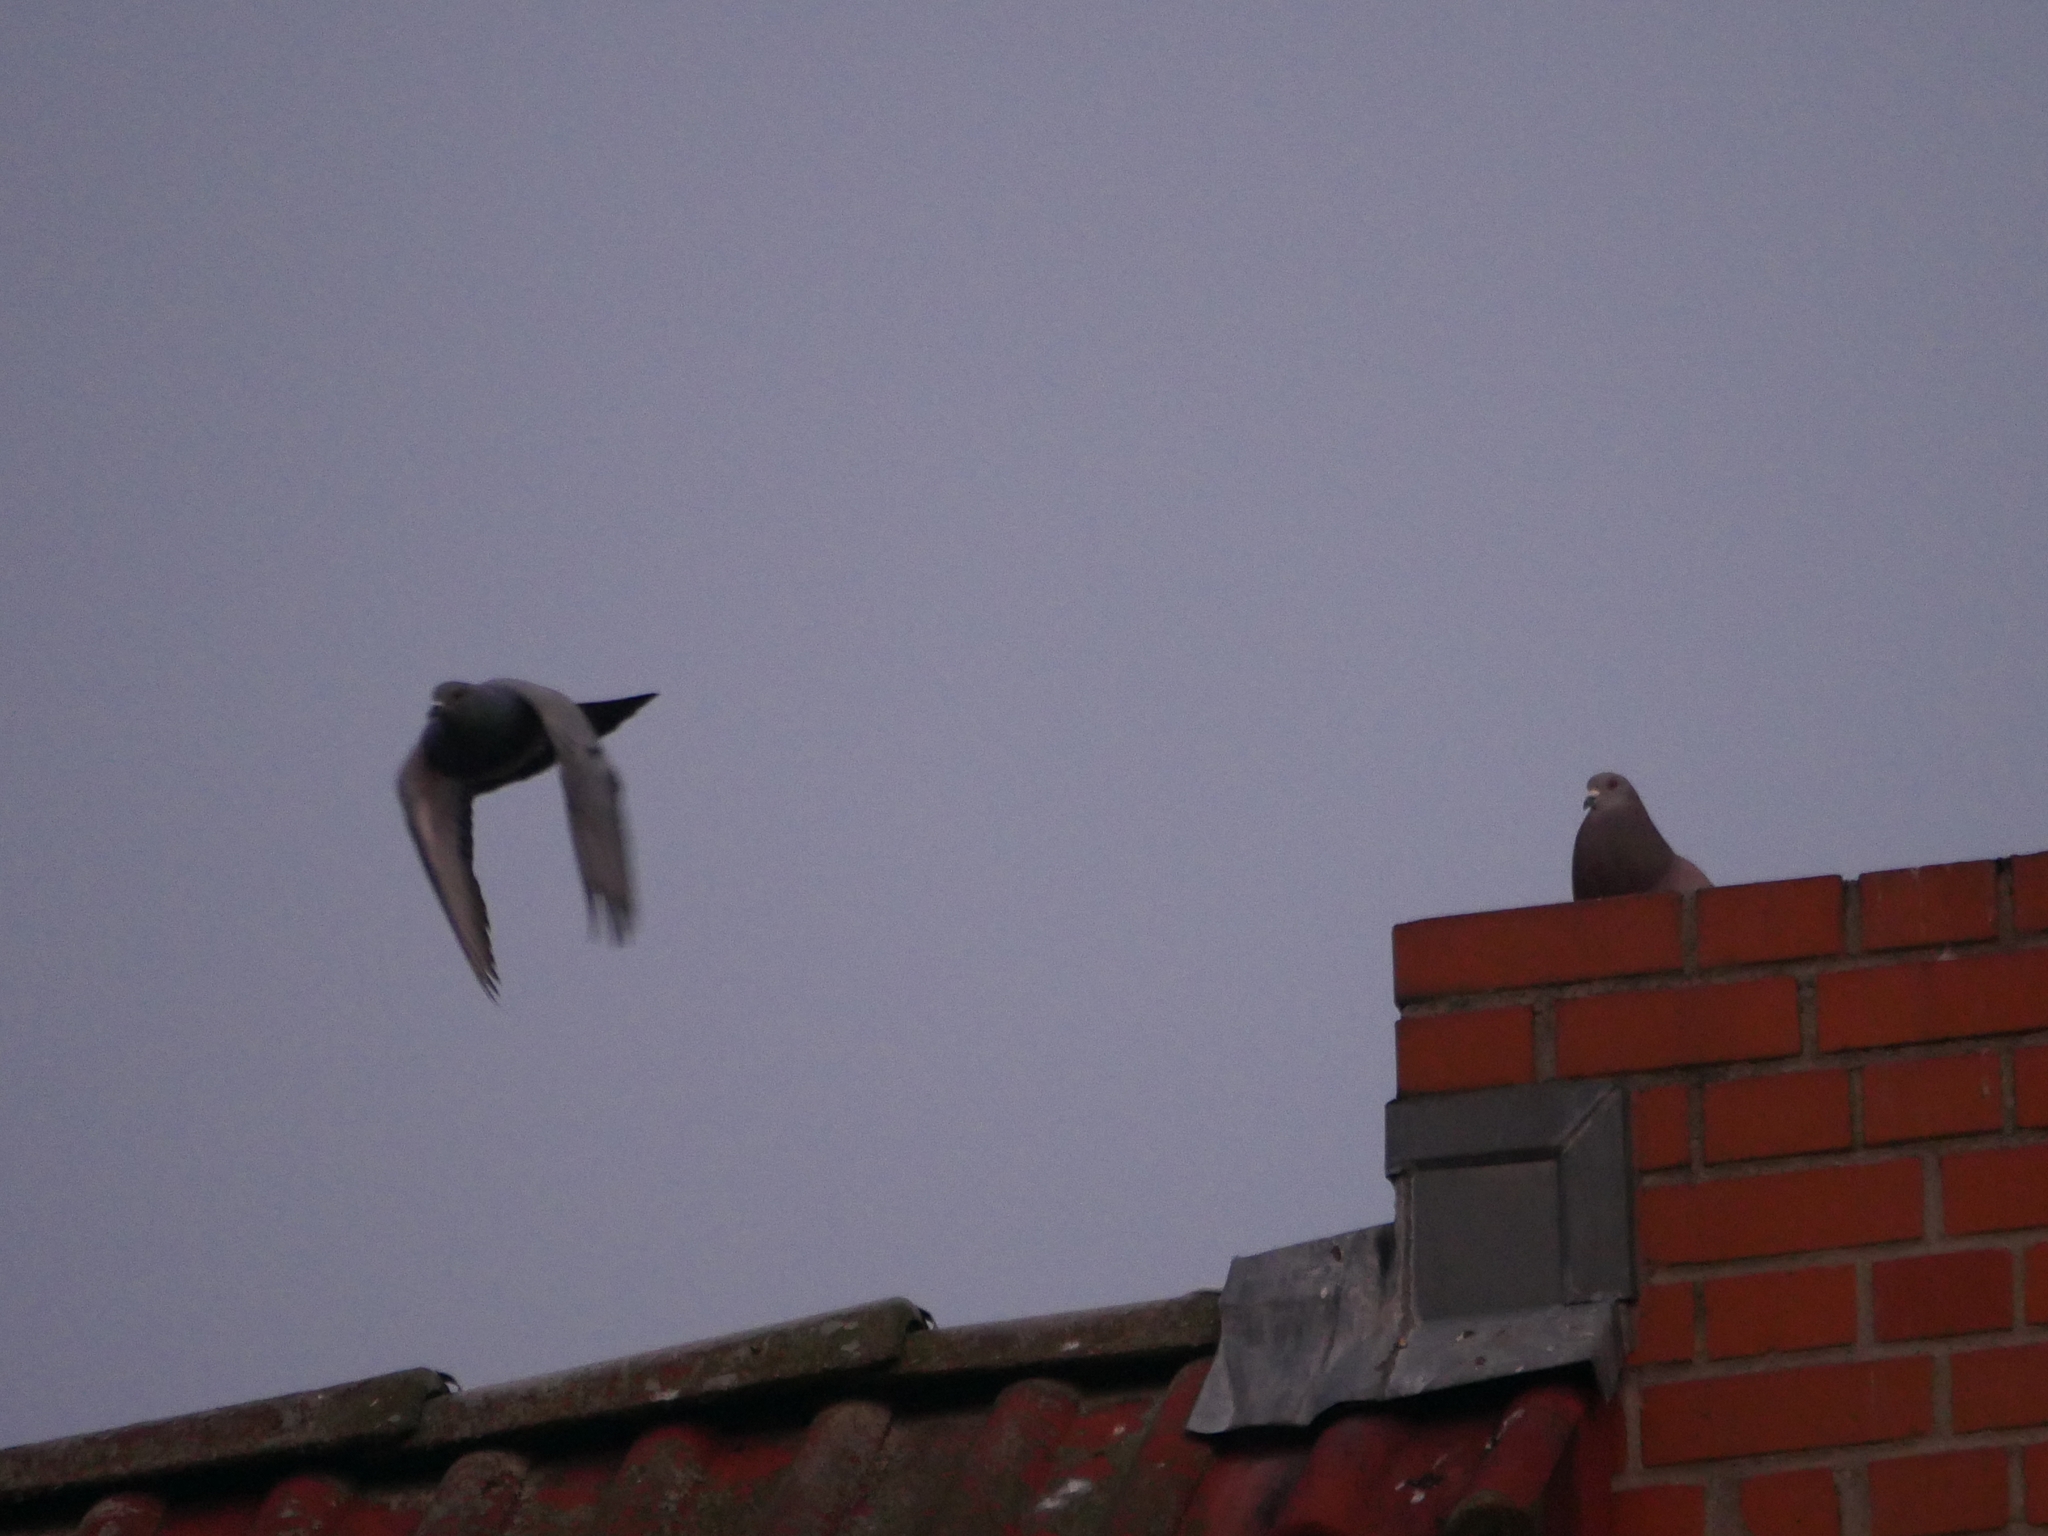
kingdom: Animalia
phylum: Chordata
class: Aves
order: Columbiformes
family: Columbidae
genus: Columba
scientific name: Columba livia
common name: Rock pigeon
